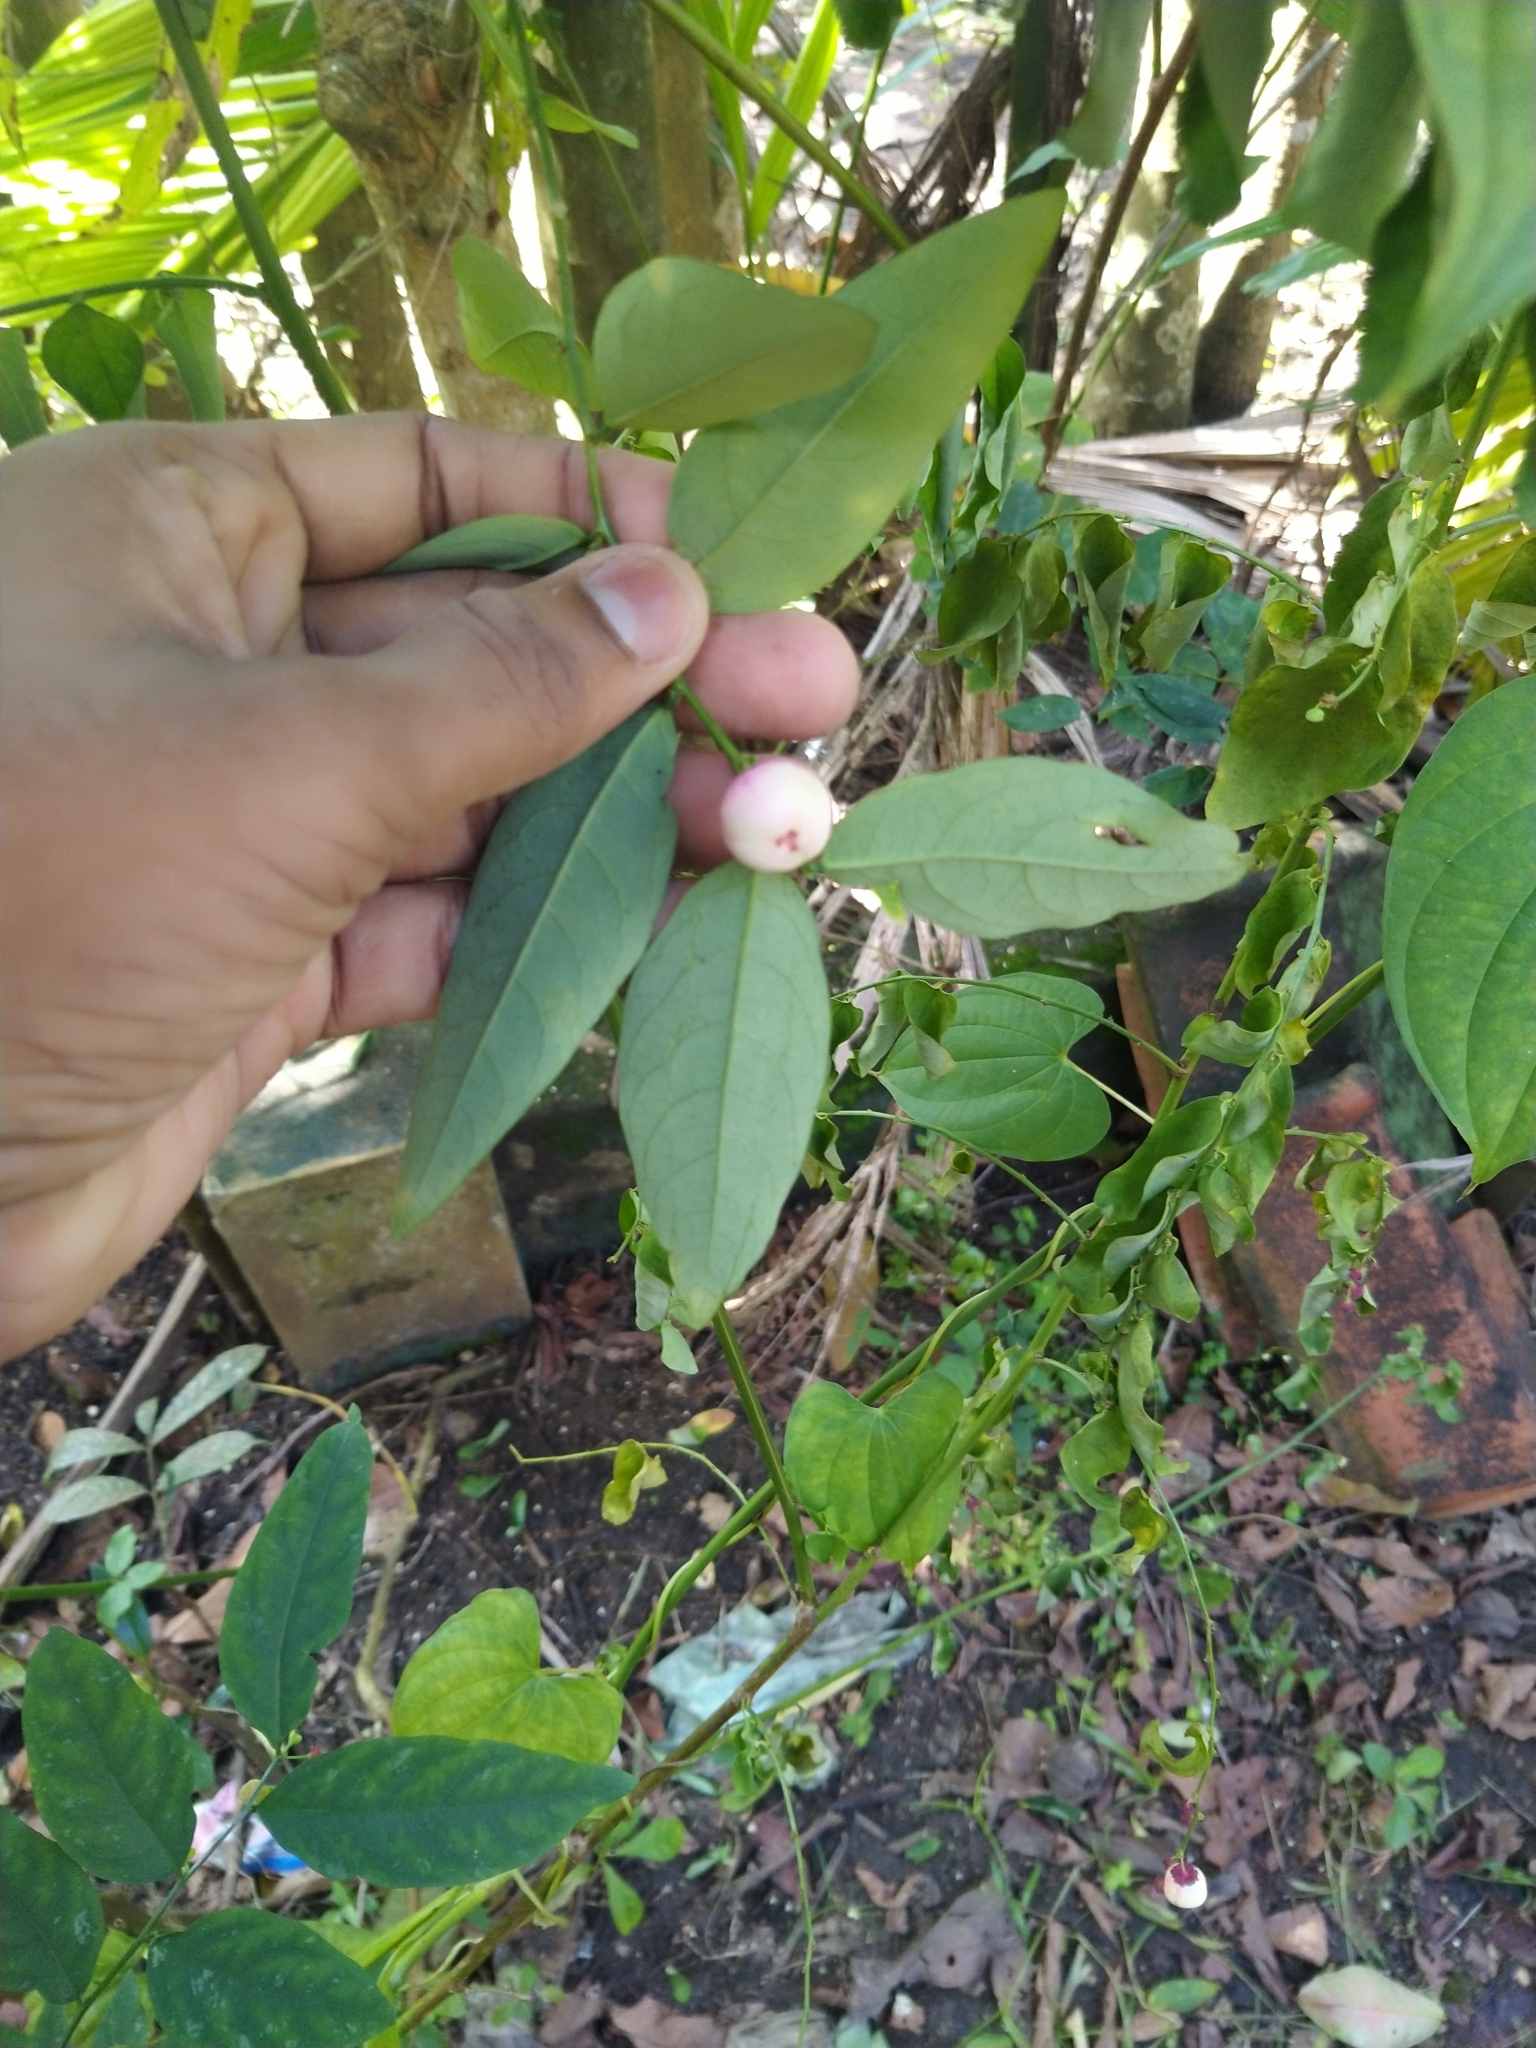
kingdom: Plantae
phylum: Tracheophyta
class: Magnoliopsida
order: Malpighiales
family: Phyllanthaceae
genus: Breynia
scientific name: Breynia androgyna
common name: Star gooseberry
